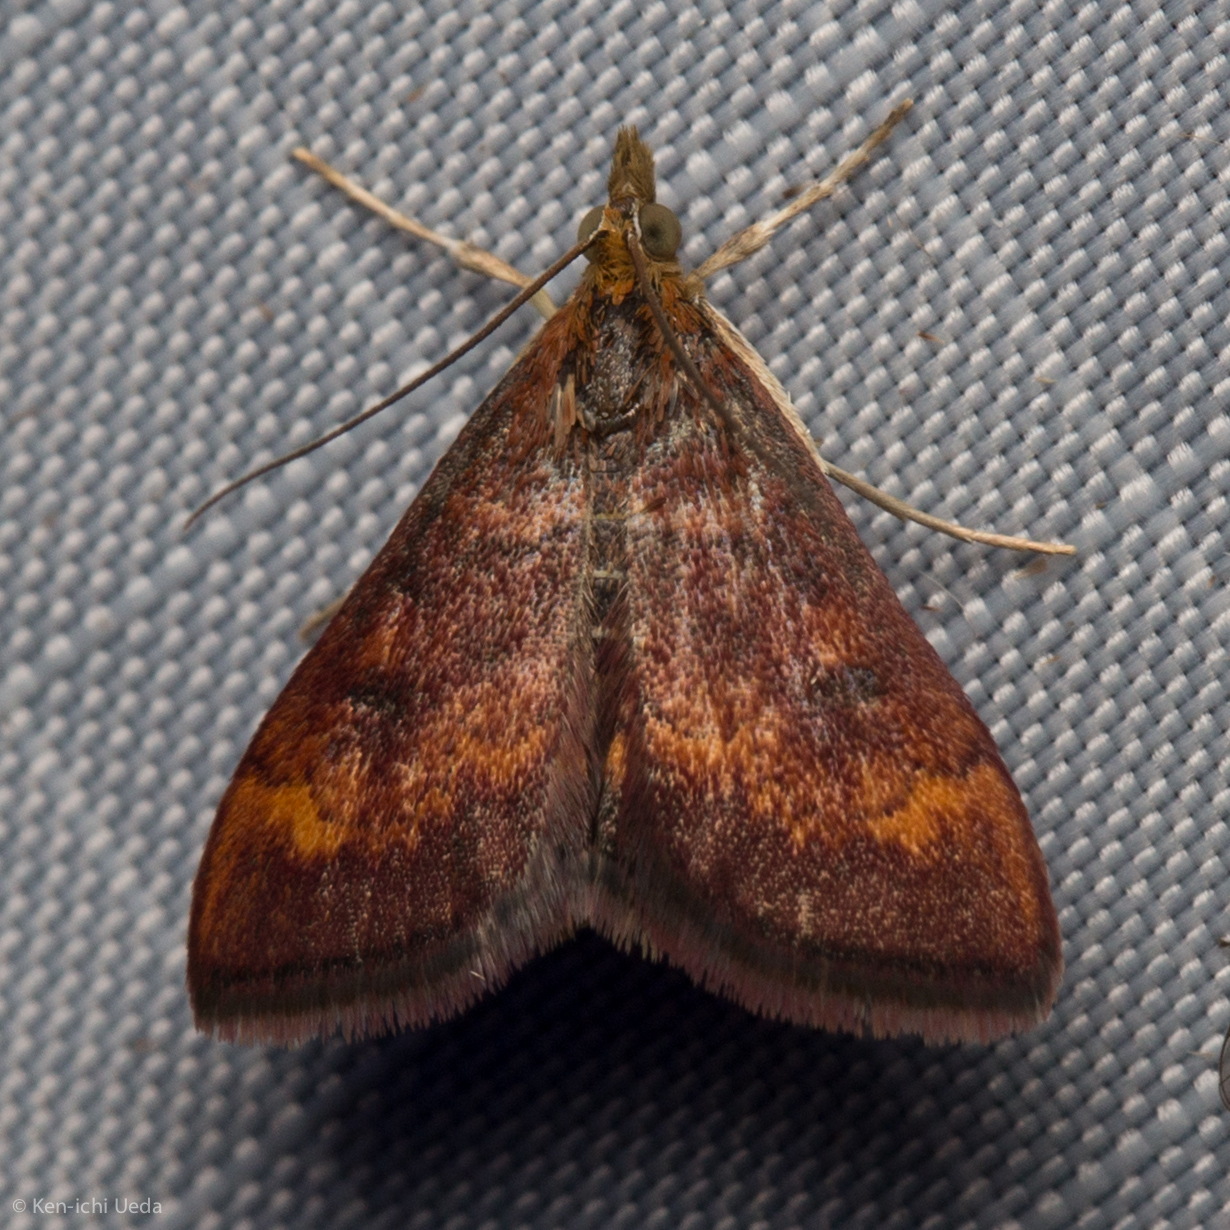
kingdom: Animalia
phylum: Arthropoda
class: Insecta
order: Lepidoptera
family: Crambidae
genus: Pyrausta
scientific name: Pyrausta californicalis
